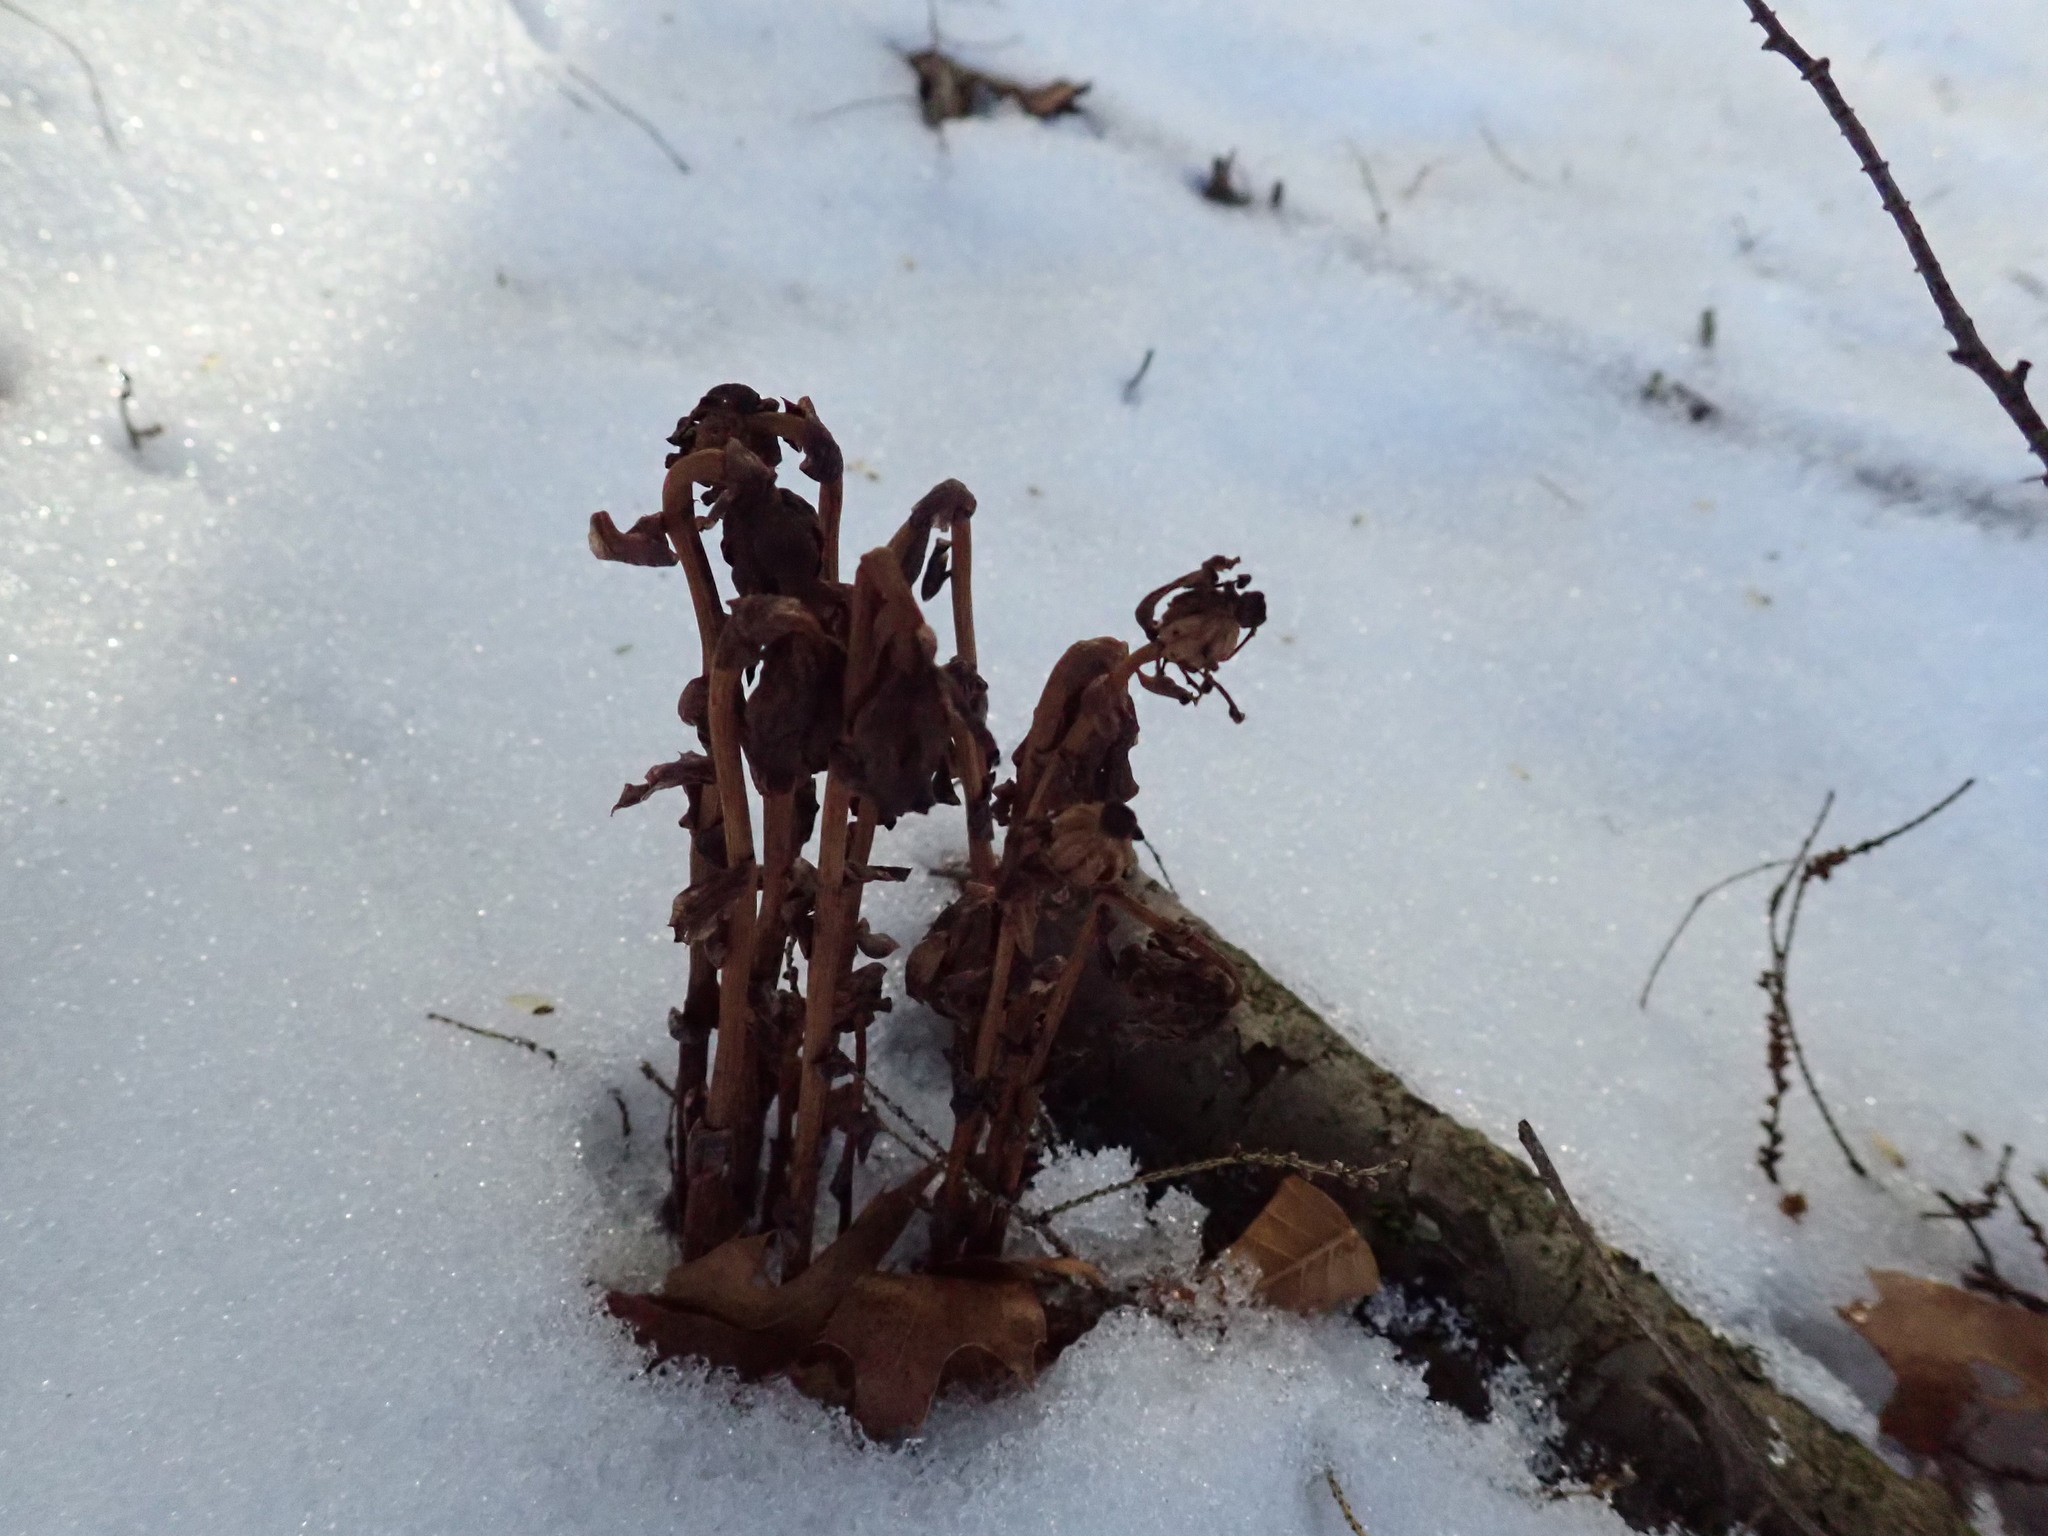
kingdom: Plantae
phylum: Tracheophyta
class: Magnoliopsida
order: Ericales
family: Ericaceae
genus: Monotropa
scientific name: Monotropa uniflora
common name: Convulsion root
